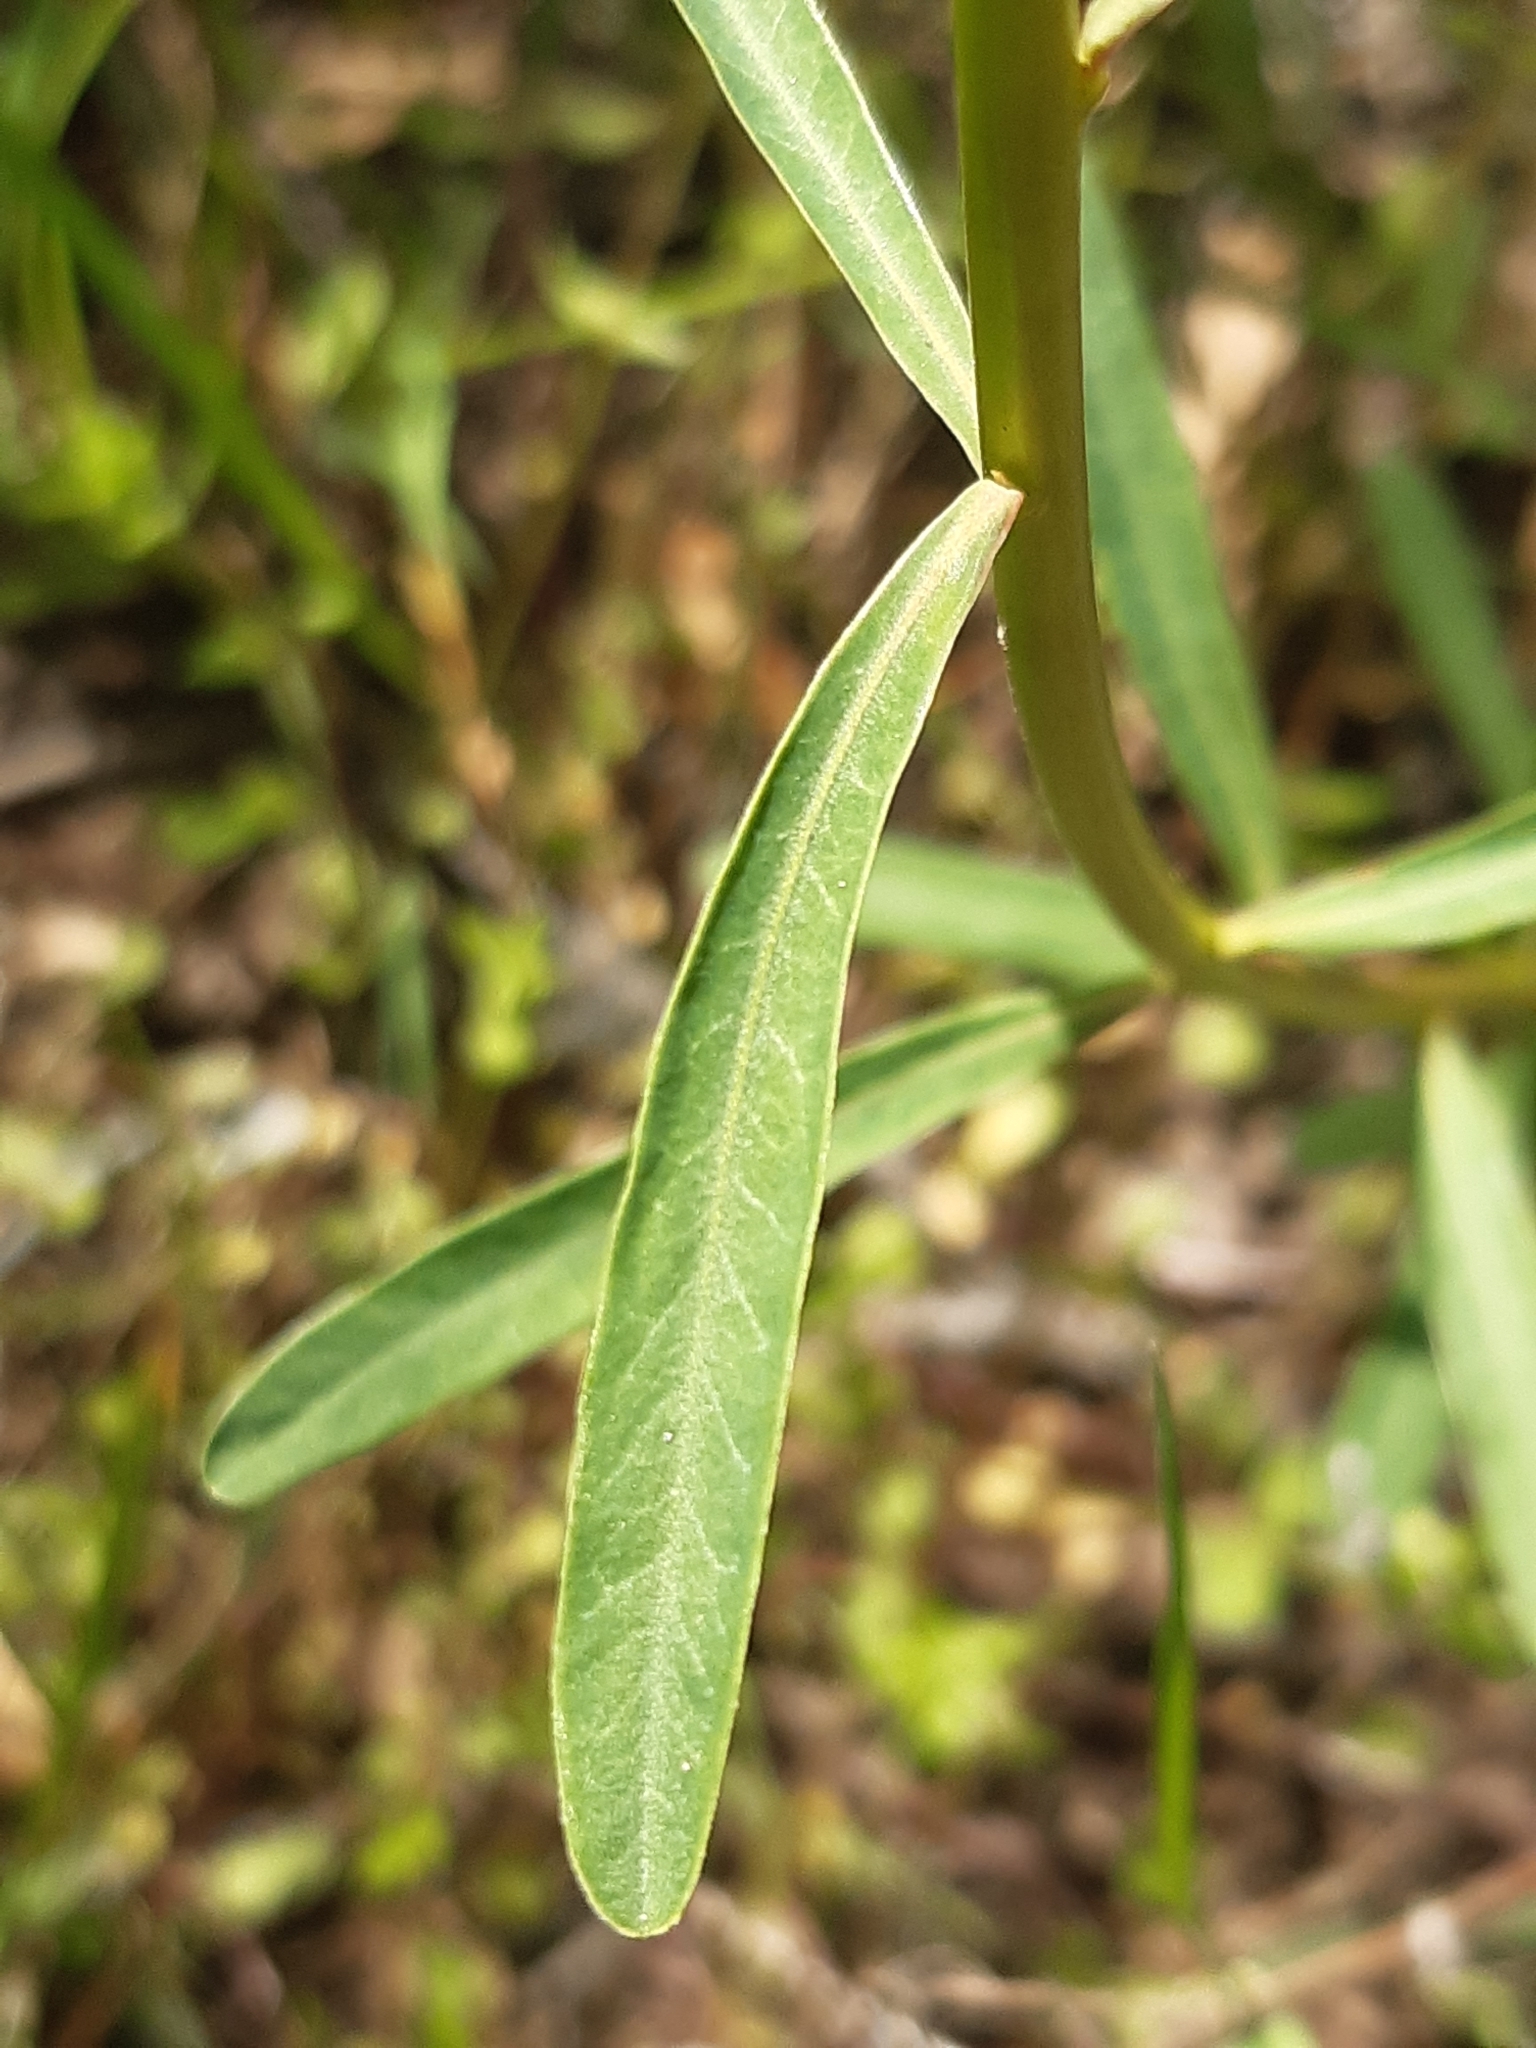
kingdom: Plantae
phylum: Tracheophyta
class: Magnoliopsida
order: Malpighiales
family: Euphorbiaceae
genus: Euphorbia
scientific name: Euphorbia esula
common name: Leafy spurge
